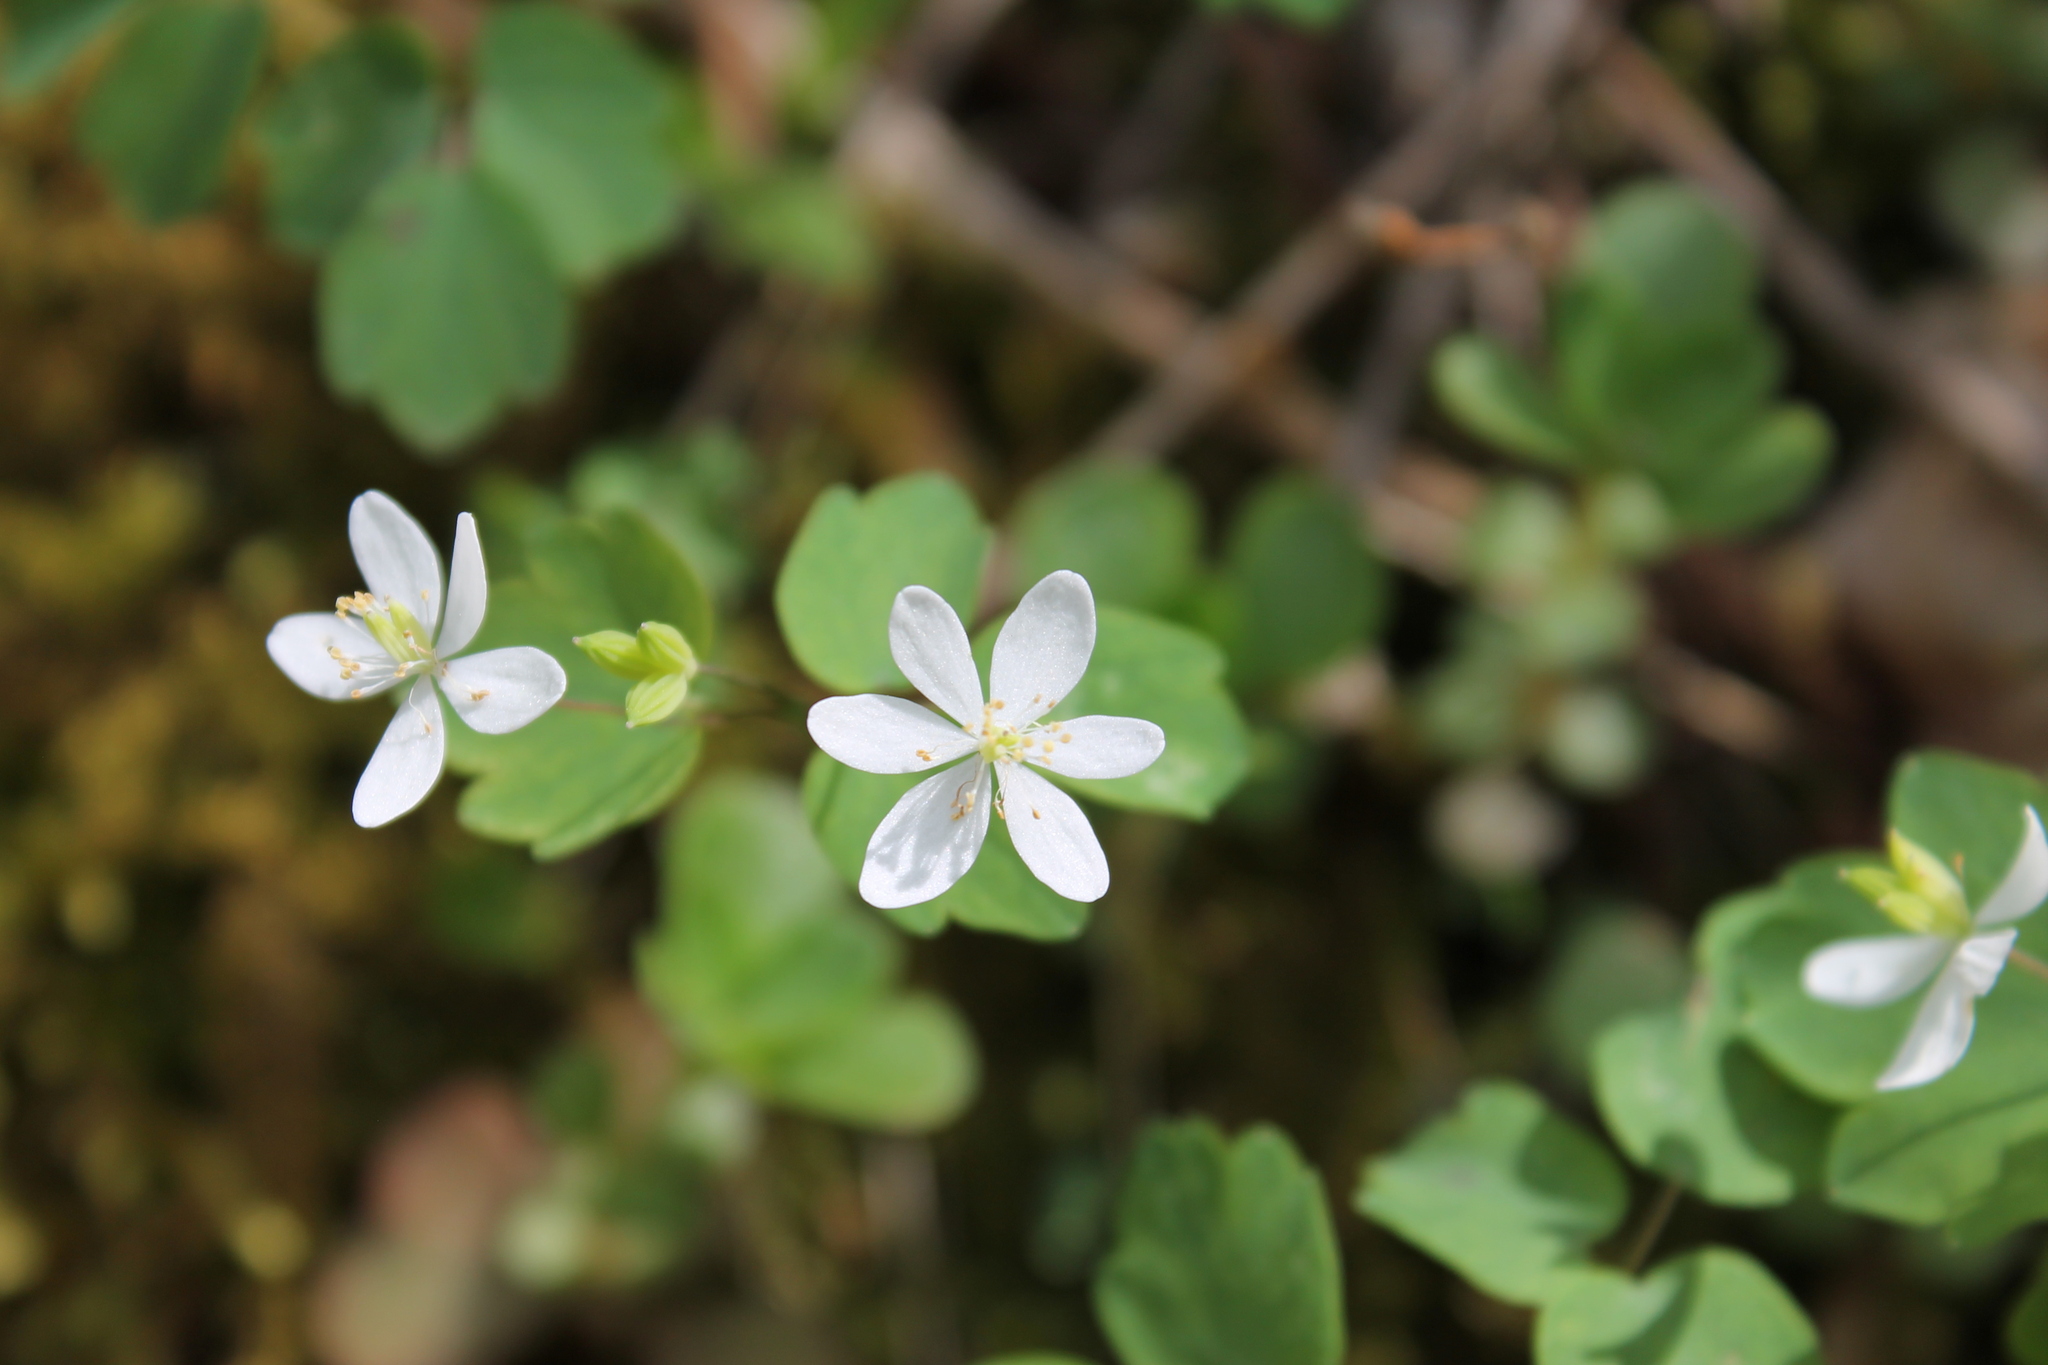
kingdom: Plantae
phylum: Tracheophyta
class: Magnoliopsida
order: Ranunculales
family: Ranunculaceae
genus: Thalictrum
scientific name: Thalictrum thalictroides
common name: Rue-anemone
